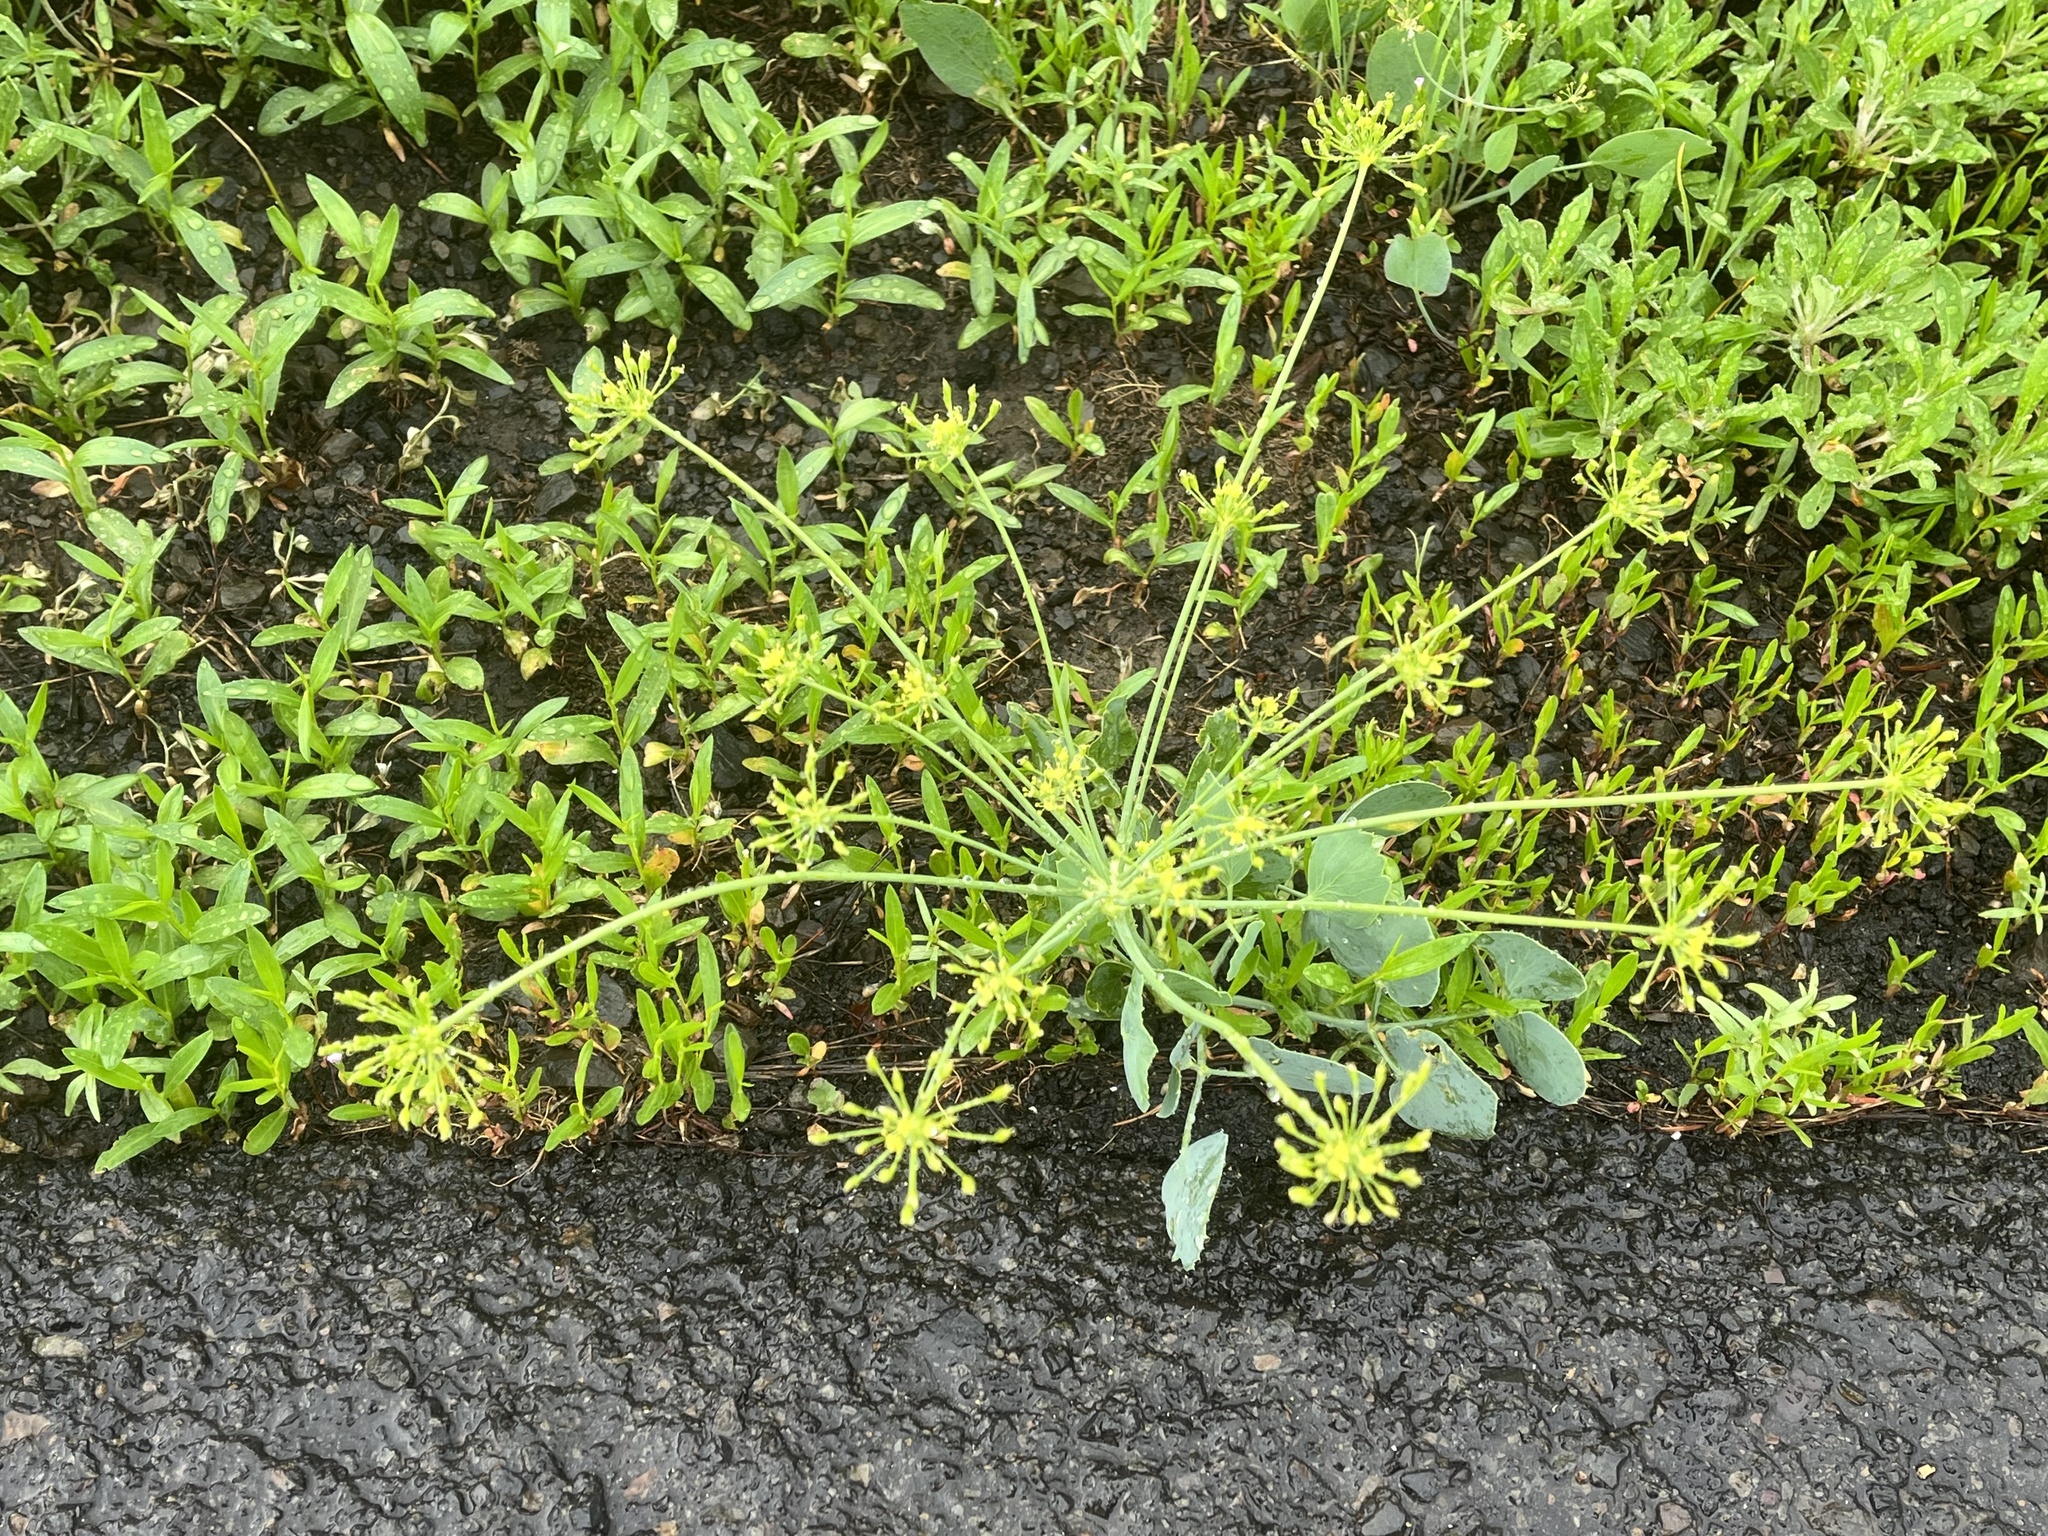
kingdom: Plantae
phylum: Tracheophyta
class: Magnoliopsida
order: Apiales
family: Apiaceae
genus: Lomatium
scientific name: Lomatium nudicaule
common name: Pestle lomatium
